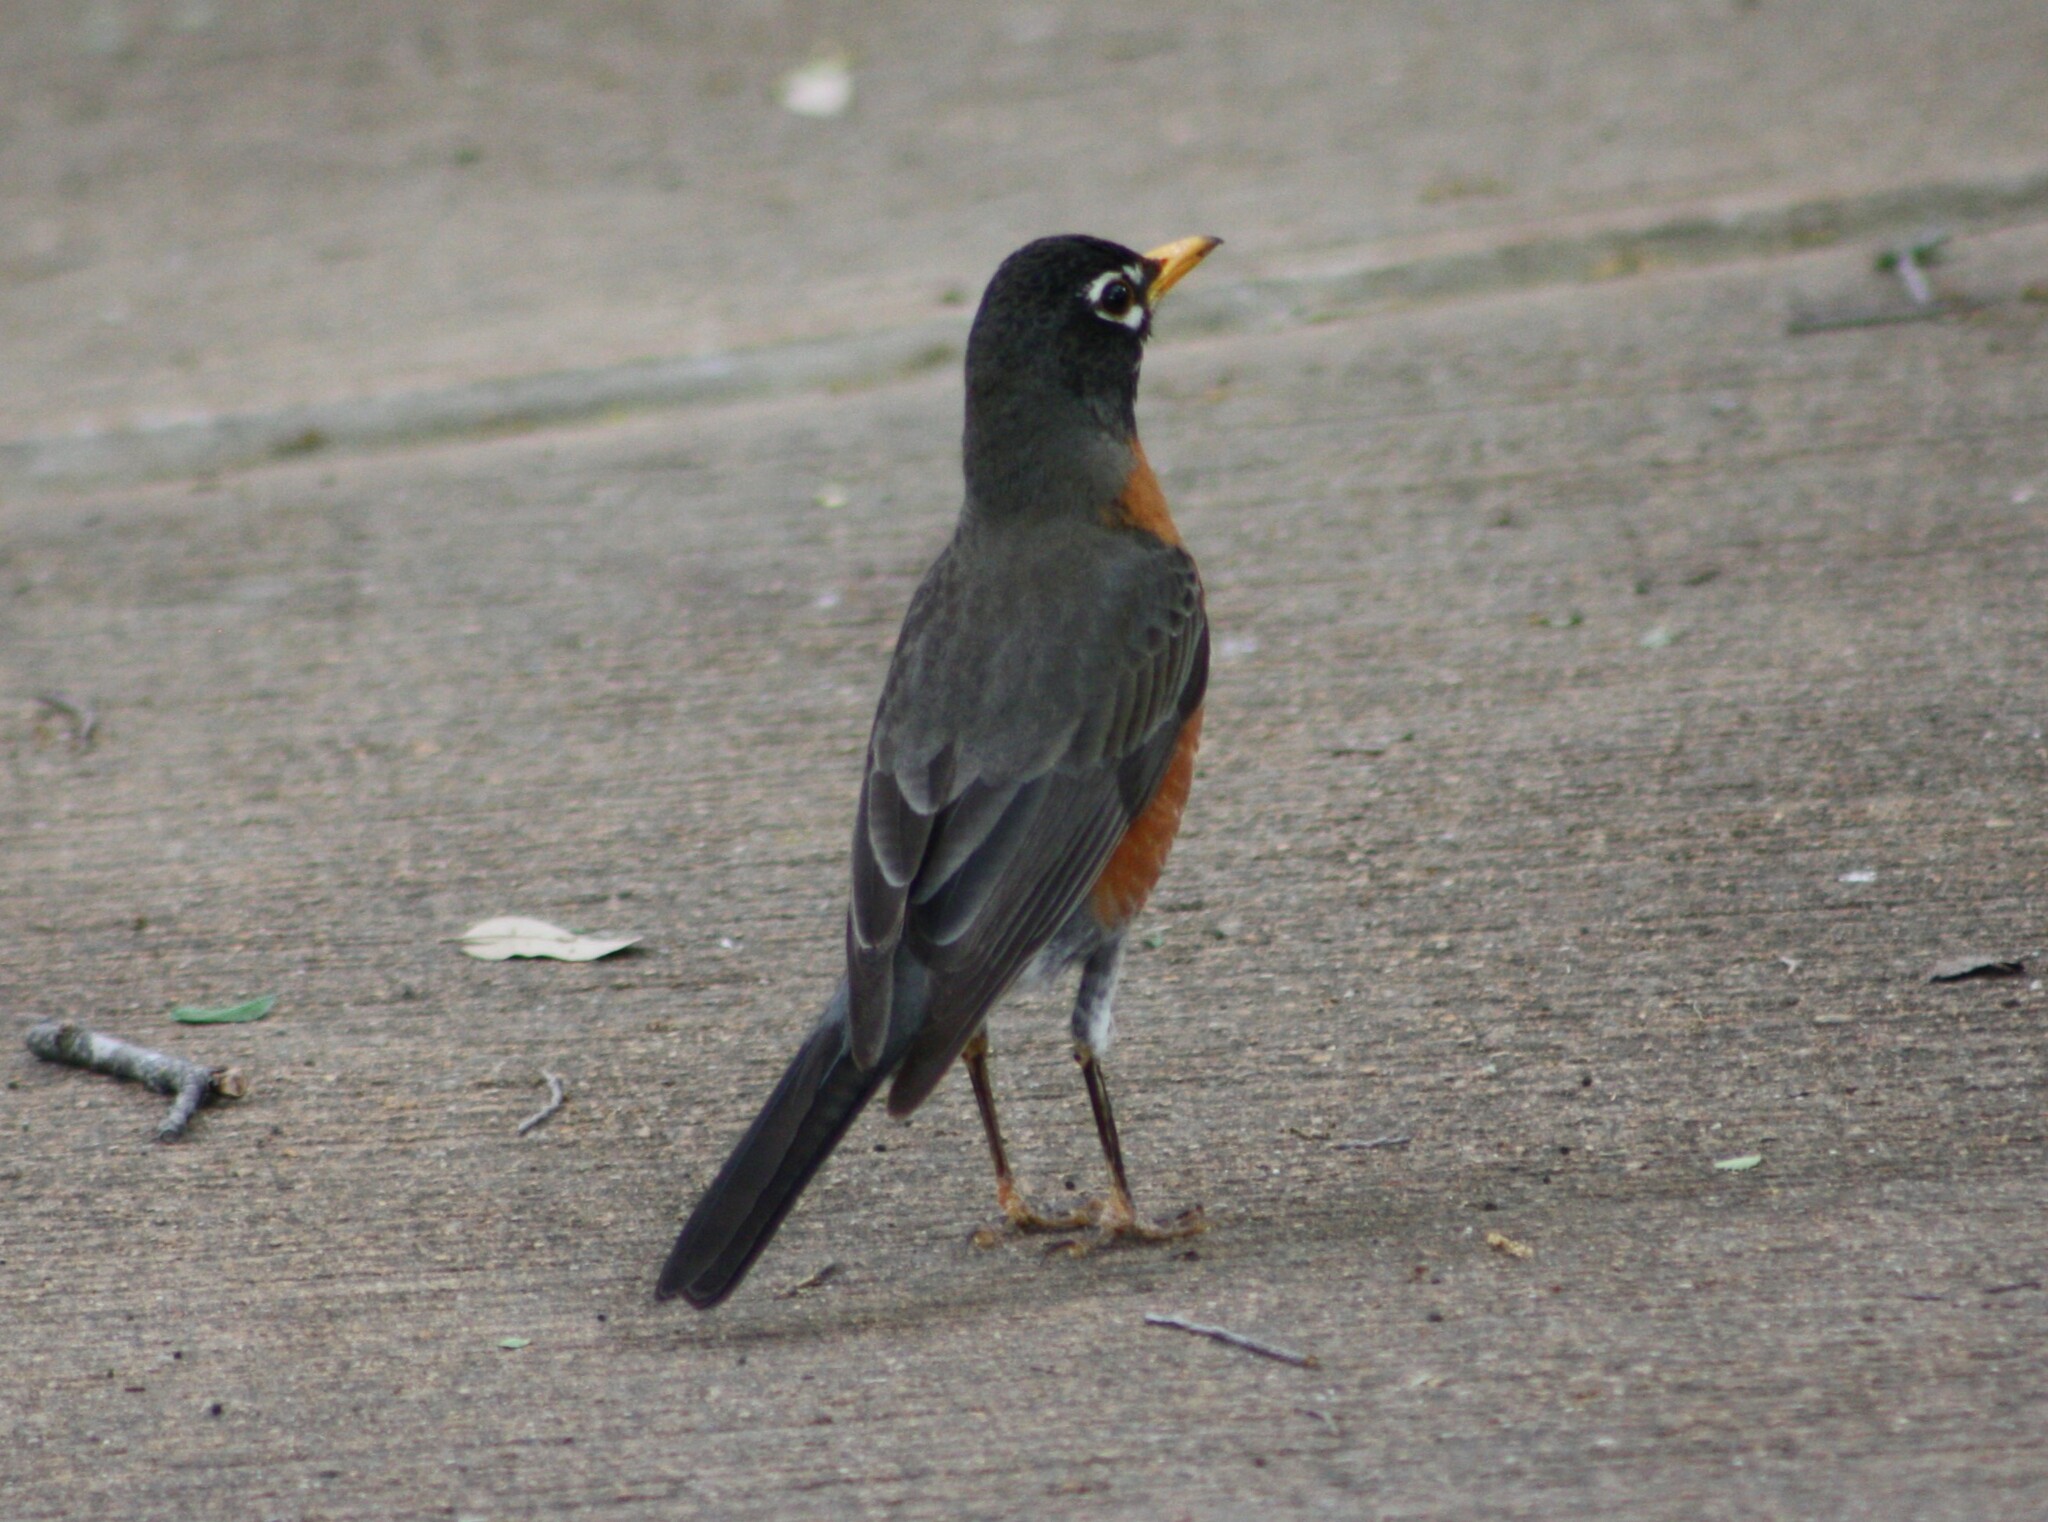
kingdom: Animalia
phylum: Chordata
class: Aves
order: Passeriformes
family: Turdidae
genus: Turdus
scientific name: Turdus migratorius
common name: American robin
